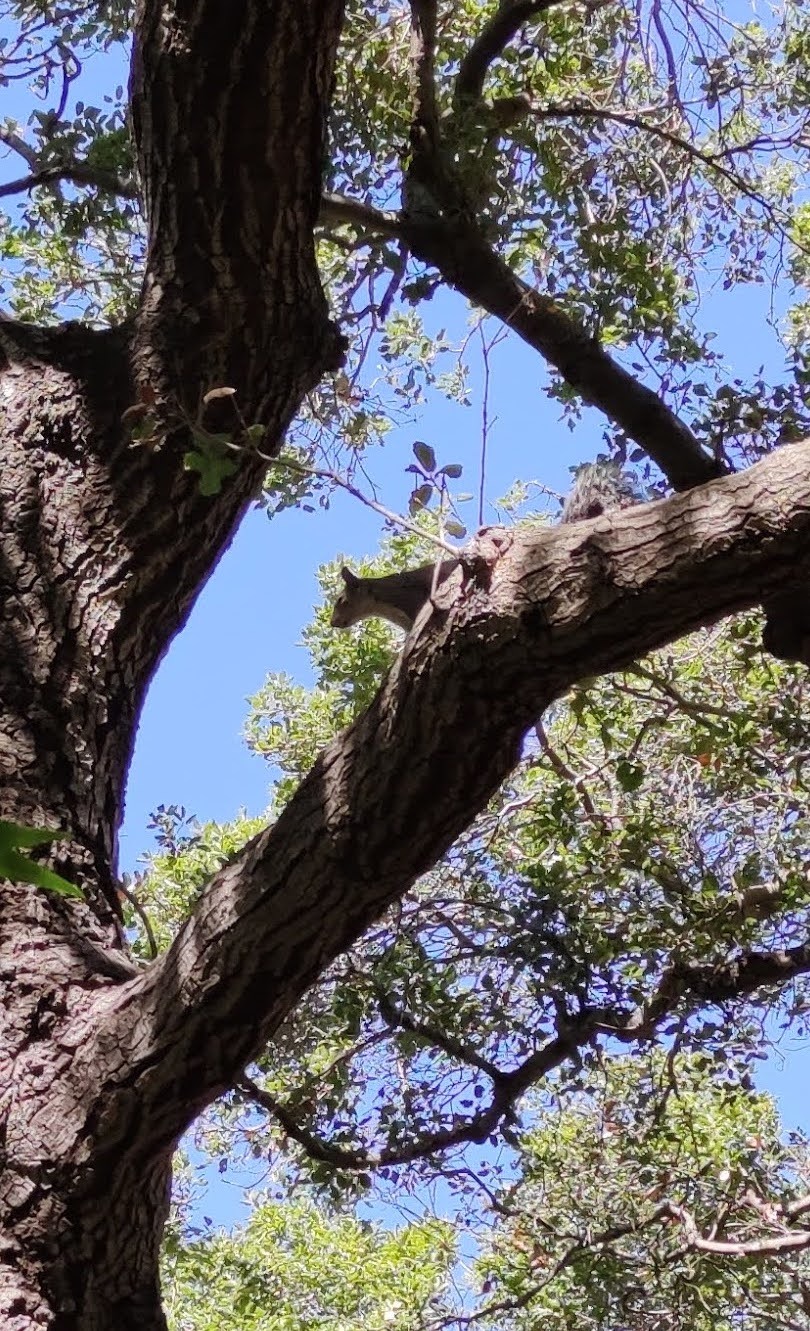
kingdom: Animalia
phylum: Chordata
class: Mammalia
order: Rodentia
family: Sciuridae
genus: Sciurus
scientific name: Sciurus griseus
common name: Western gray squirrel
